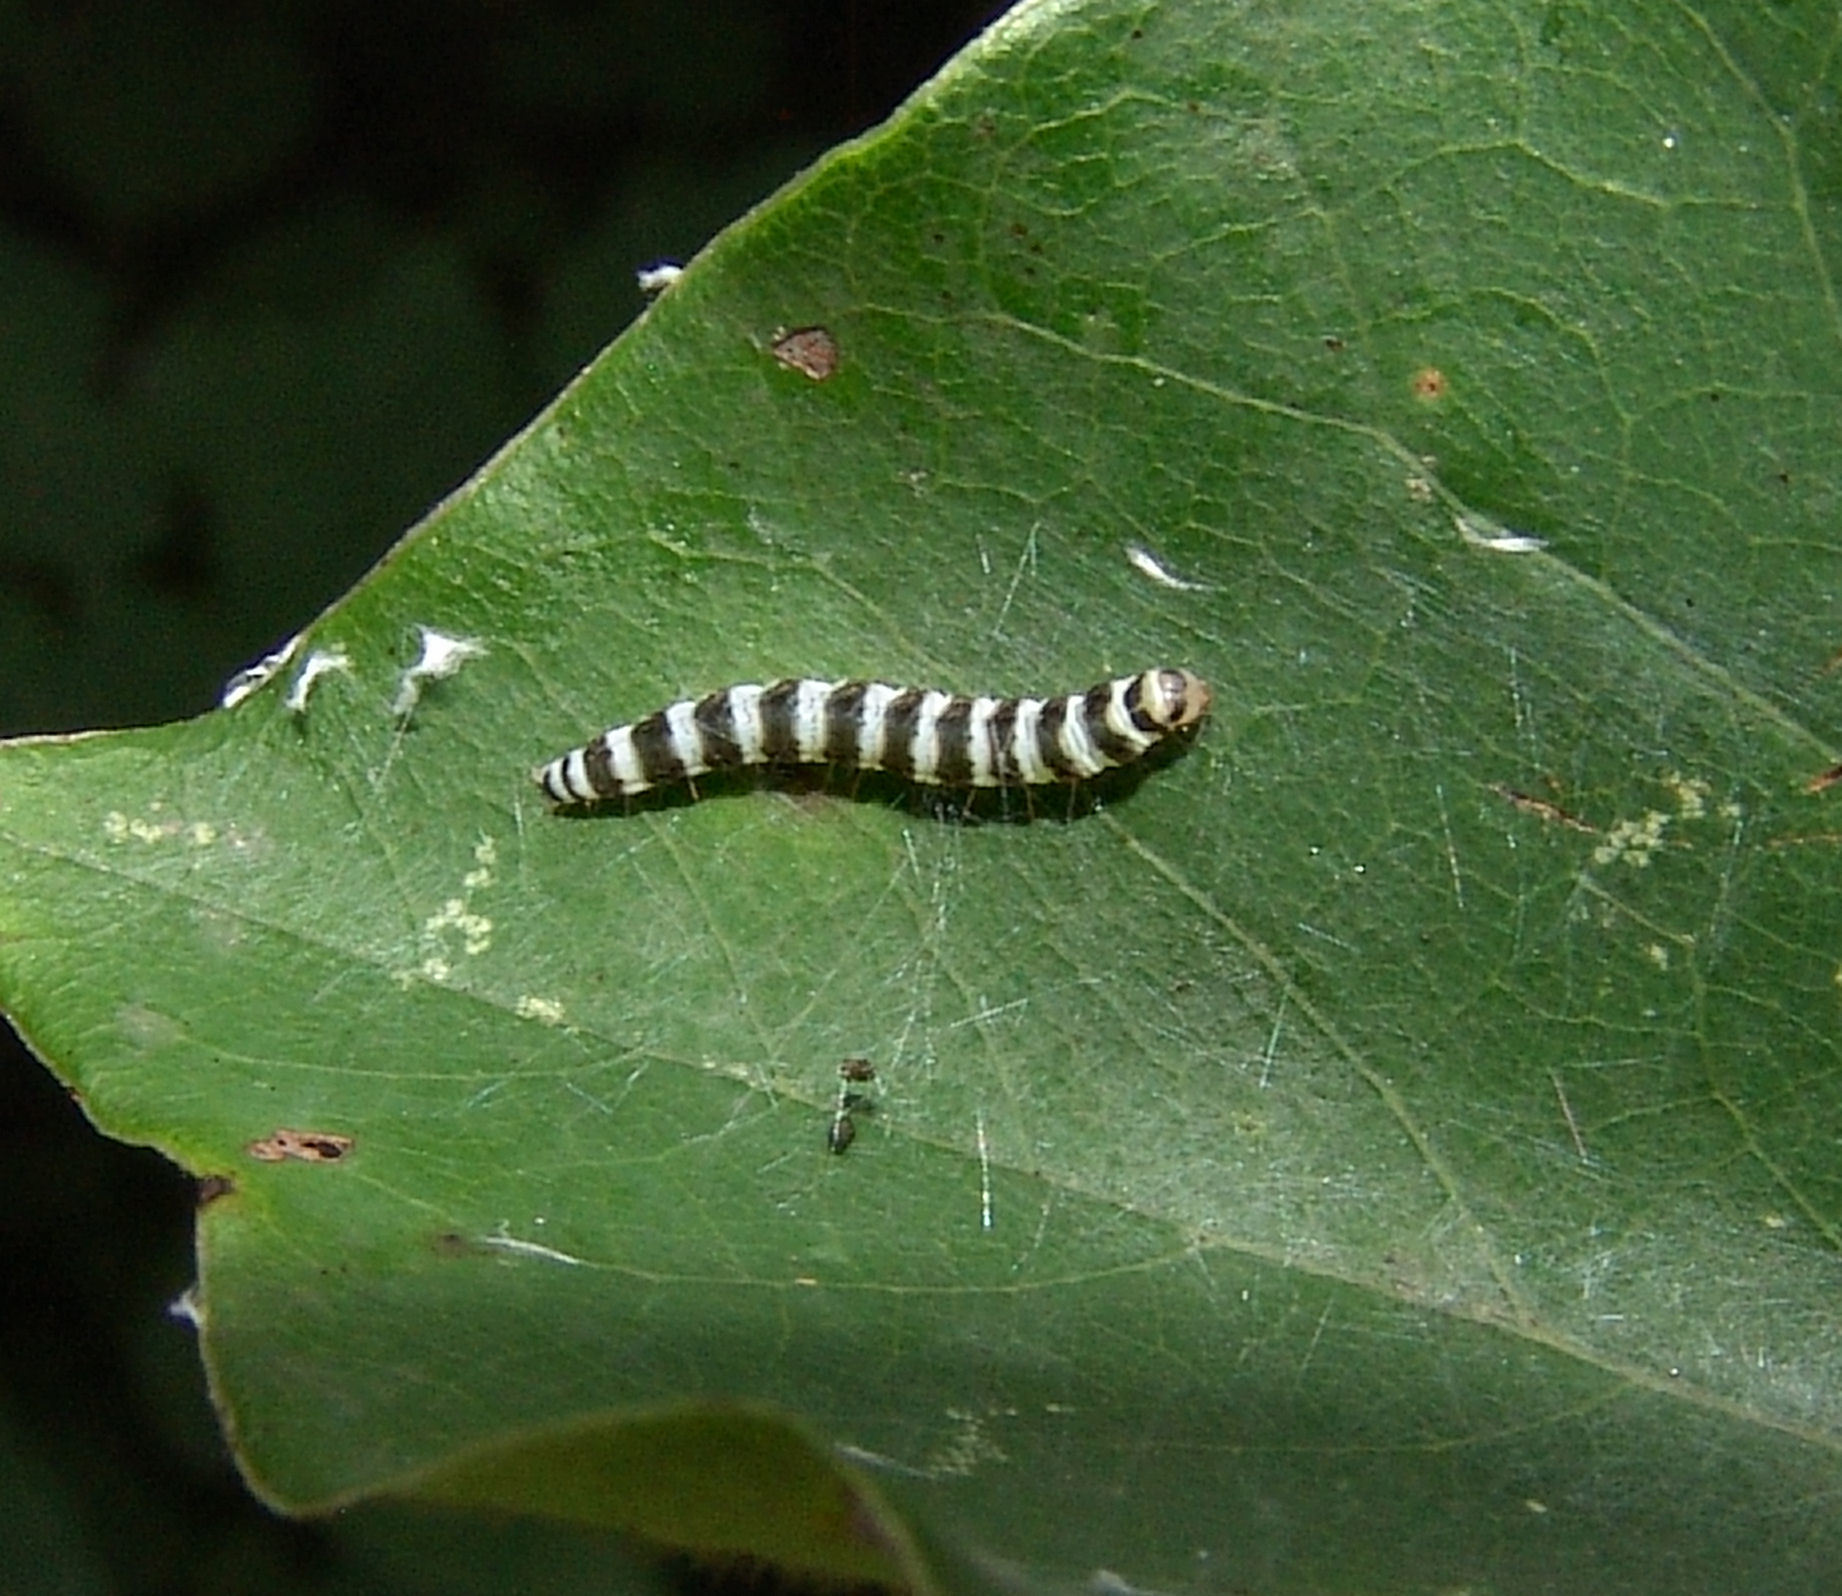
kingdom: Animalia
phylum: Arthropoda
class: Insecta
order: Lepidoptera
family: Gelechiidae
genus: Fascista
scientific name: Fascista cercerisella
